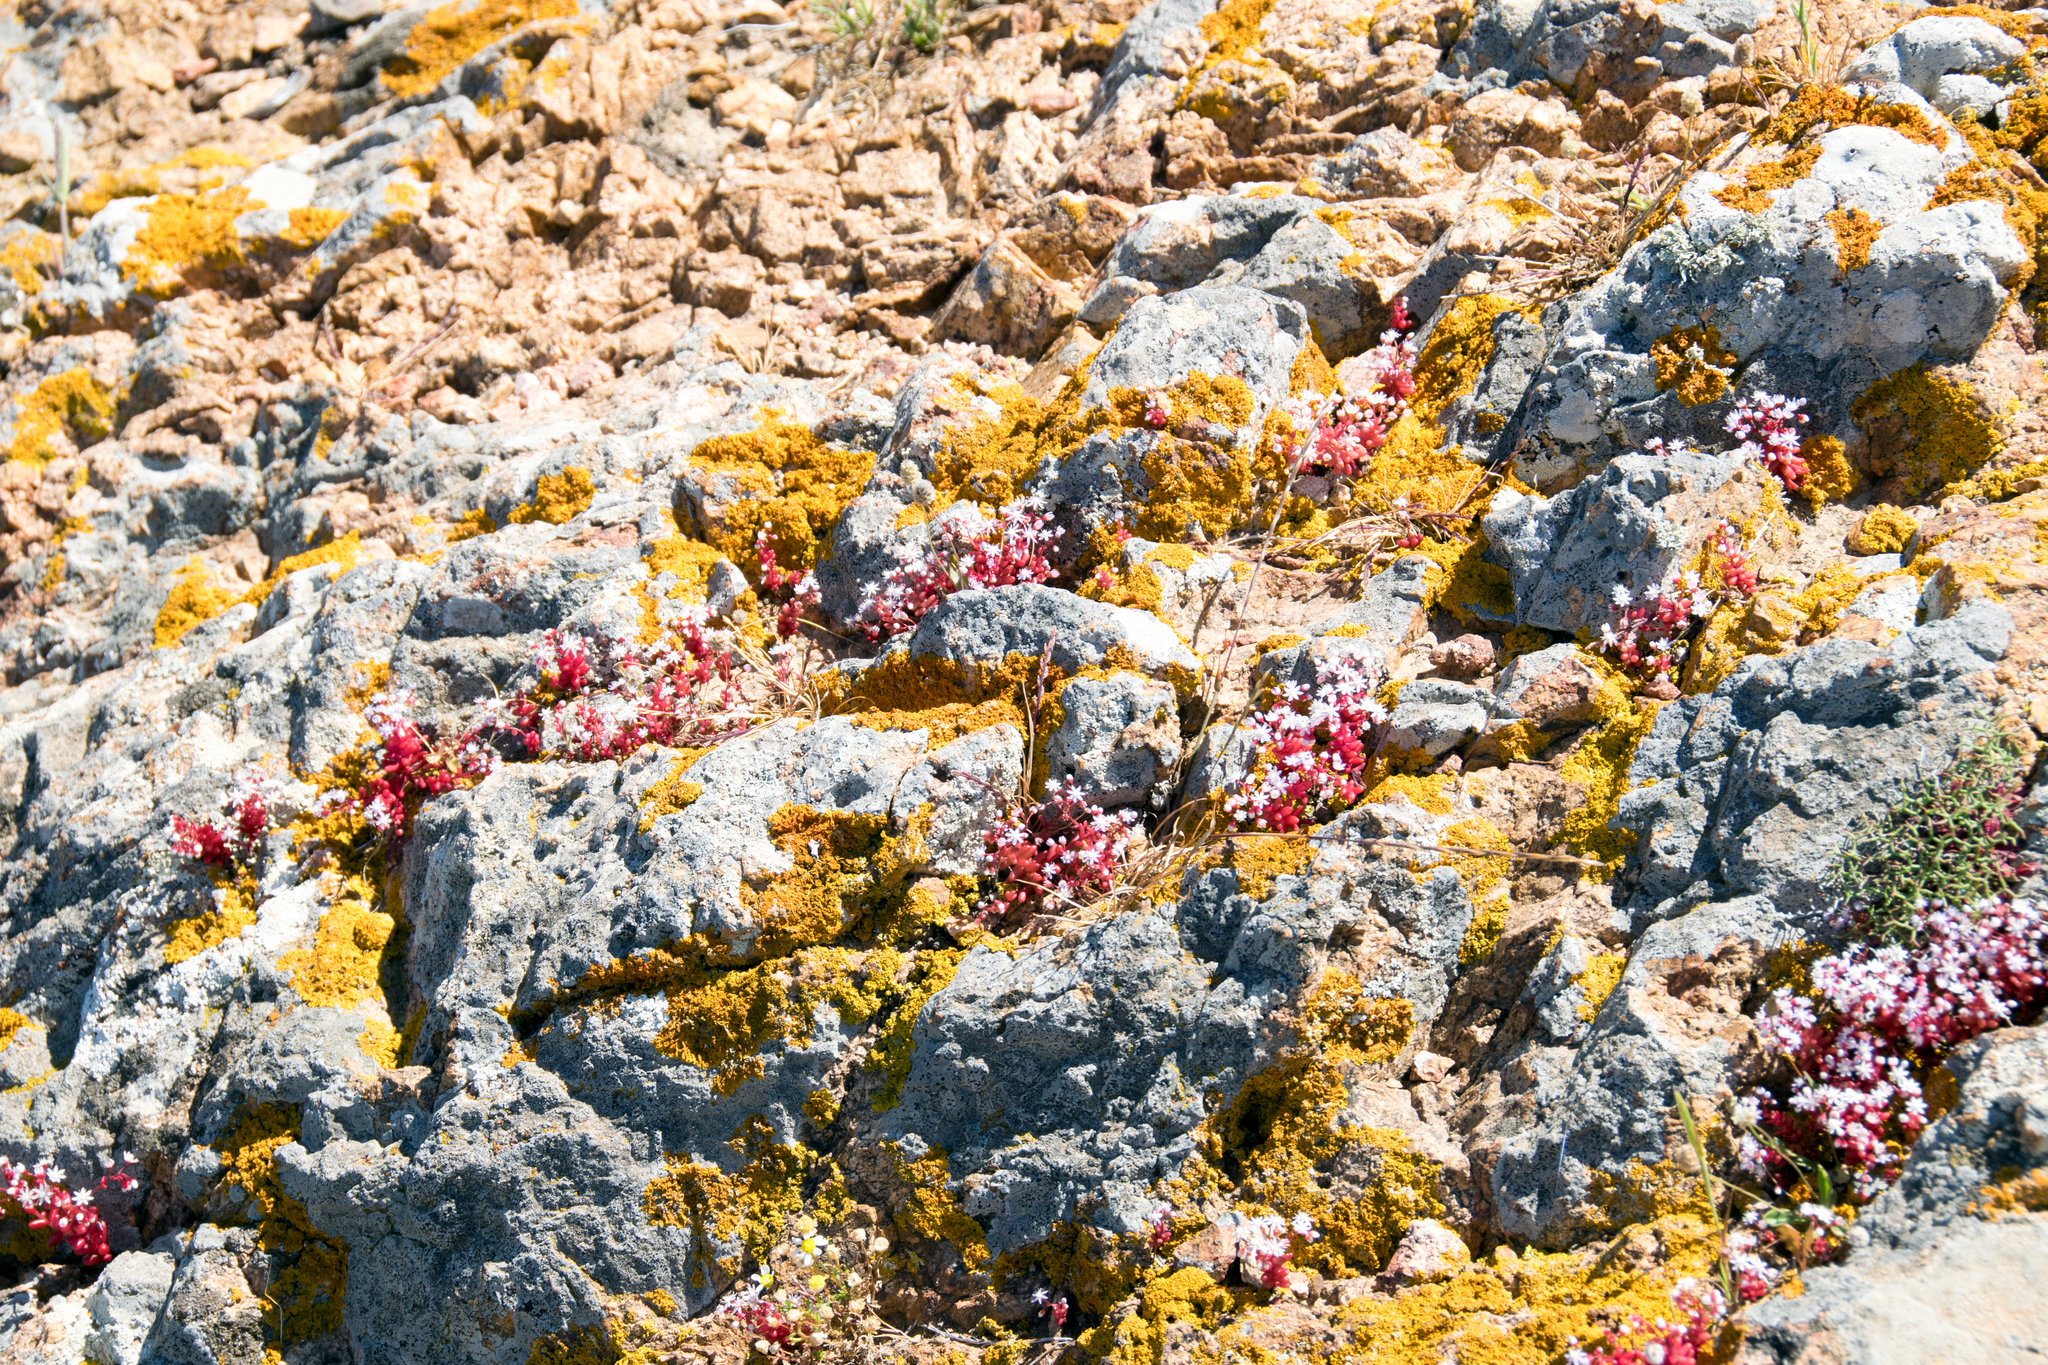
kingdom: Plantae
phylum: Tracheophyta
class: Magnoliopsida
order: Saxifragales
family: Crassulaceae
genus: Sedum
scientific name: Sedum caeruleum
